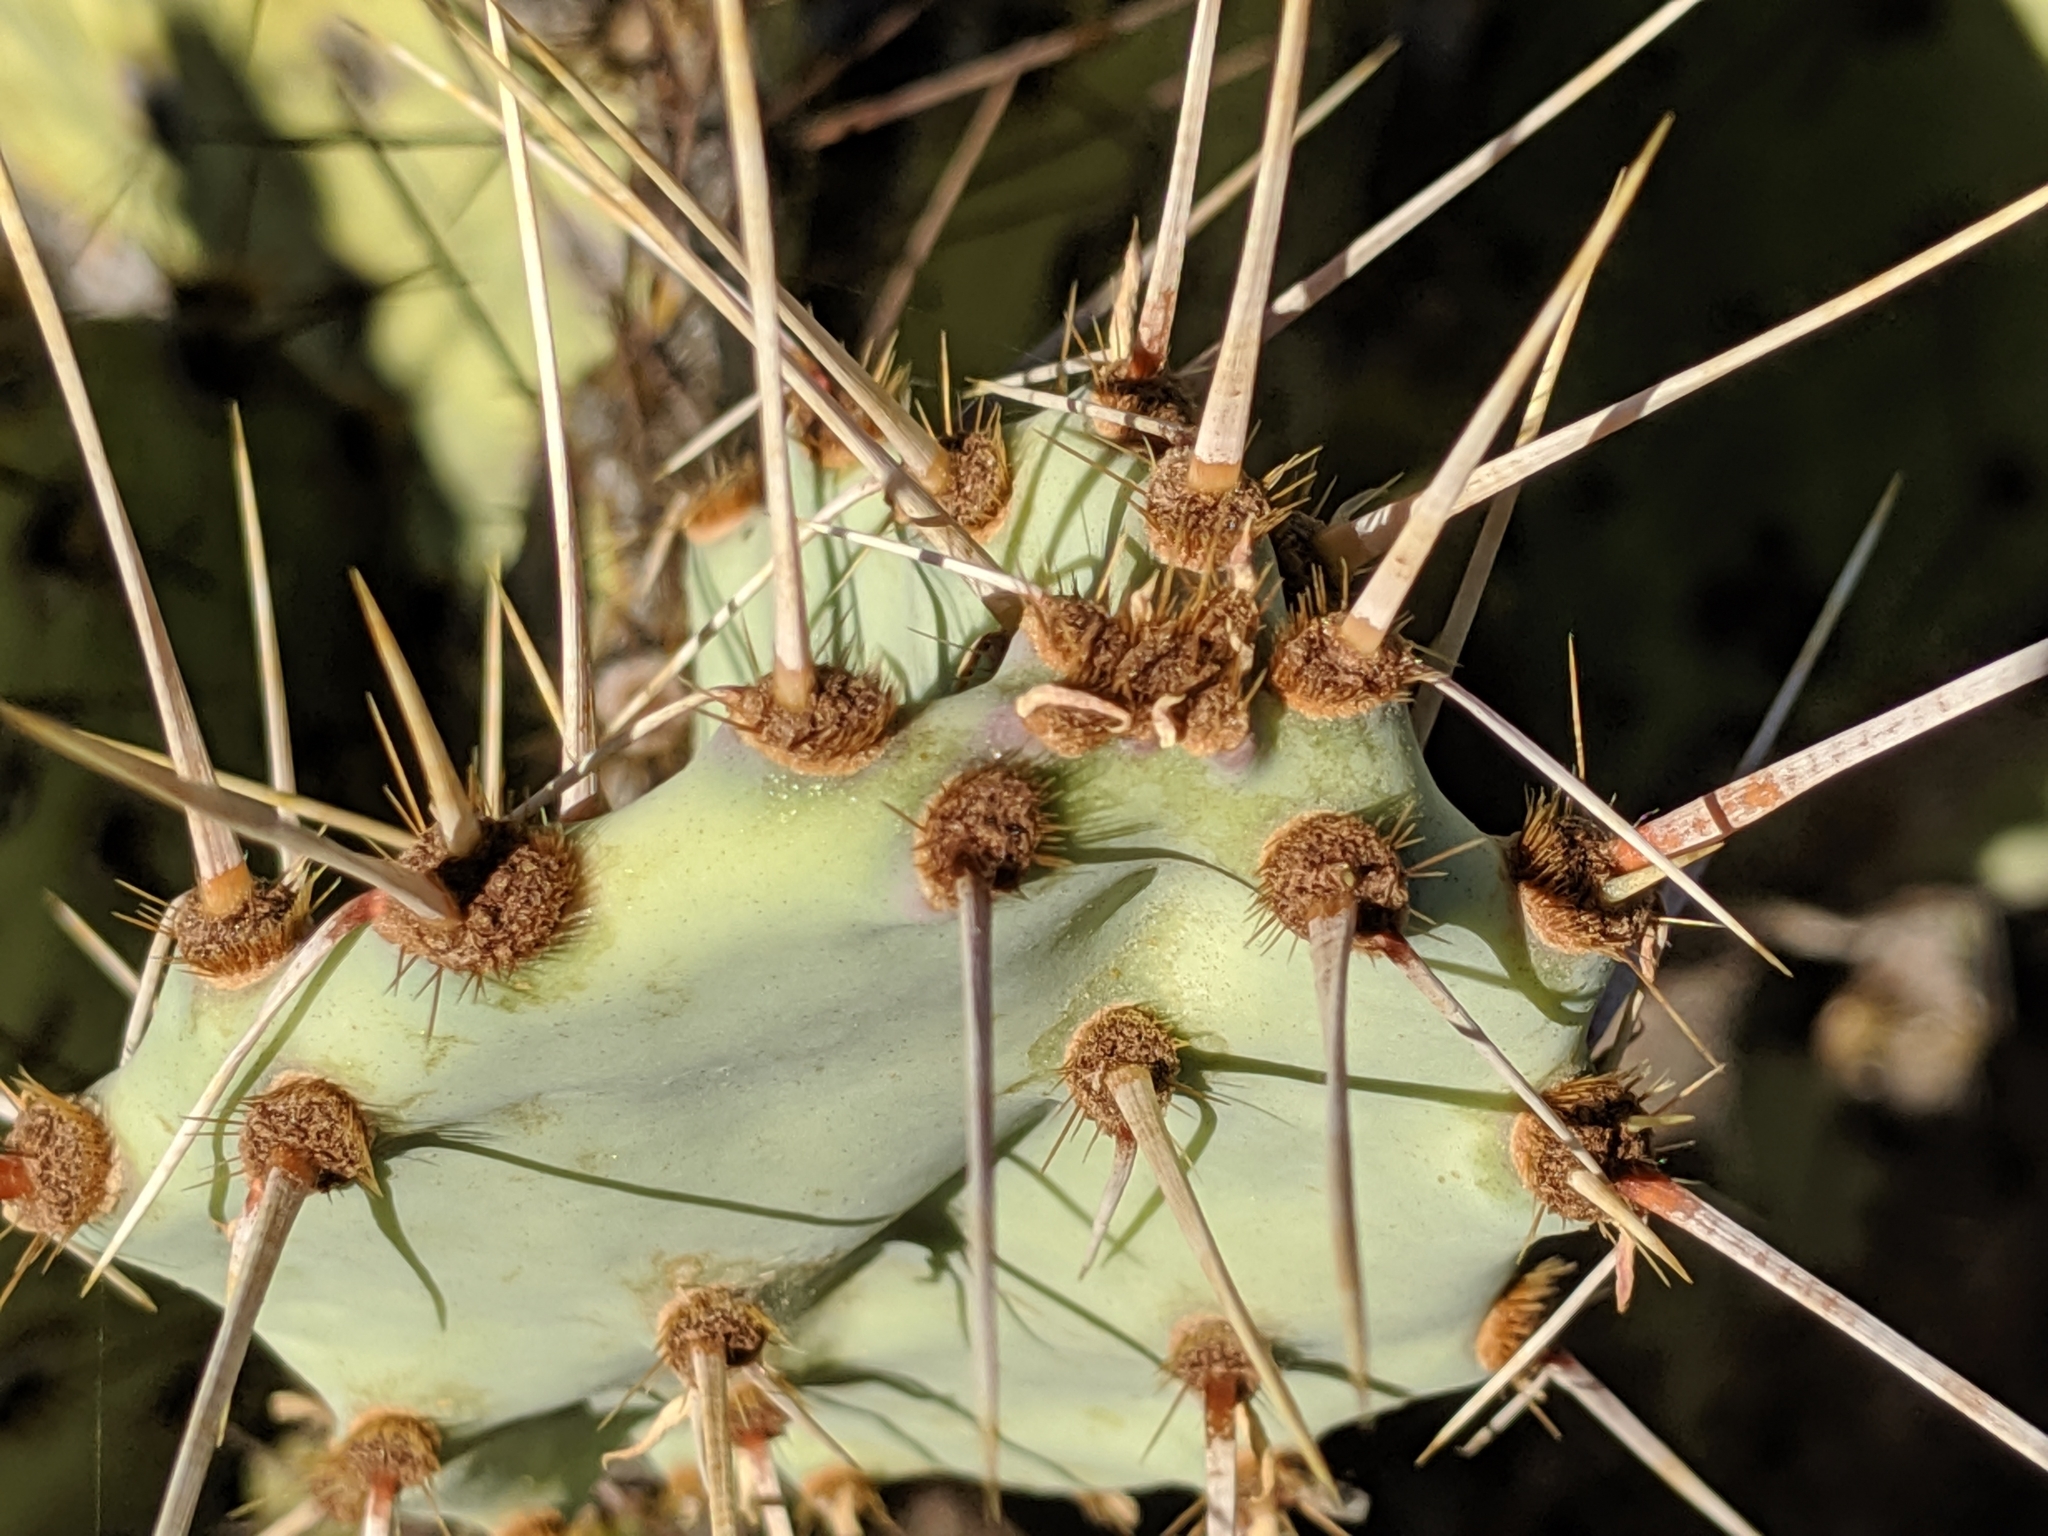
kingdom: Plantae
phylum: Tracheophyta
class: Magnoliopsida
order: Caryophyllales
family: Cactaceae
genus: Opuntia
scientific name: Opuntia engelmannii
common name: Cactus-apple
